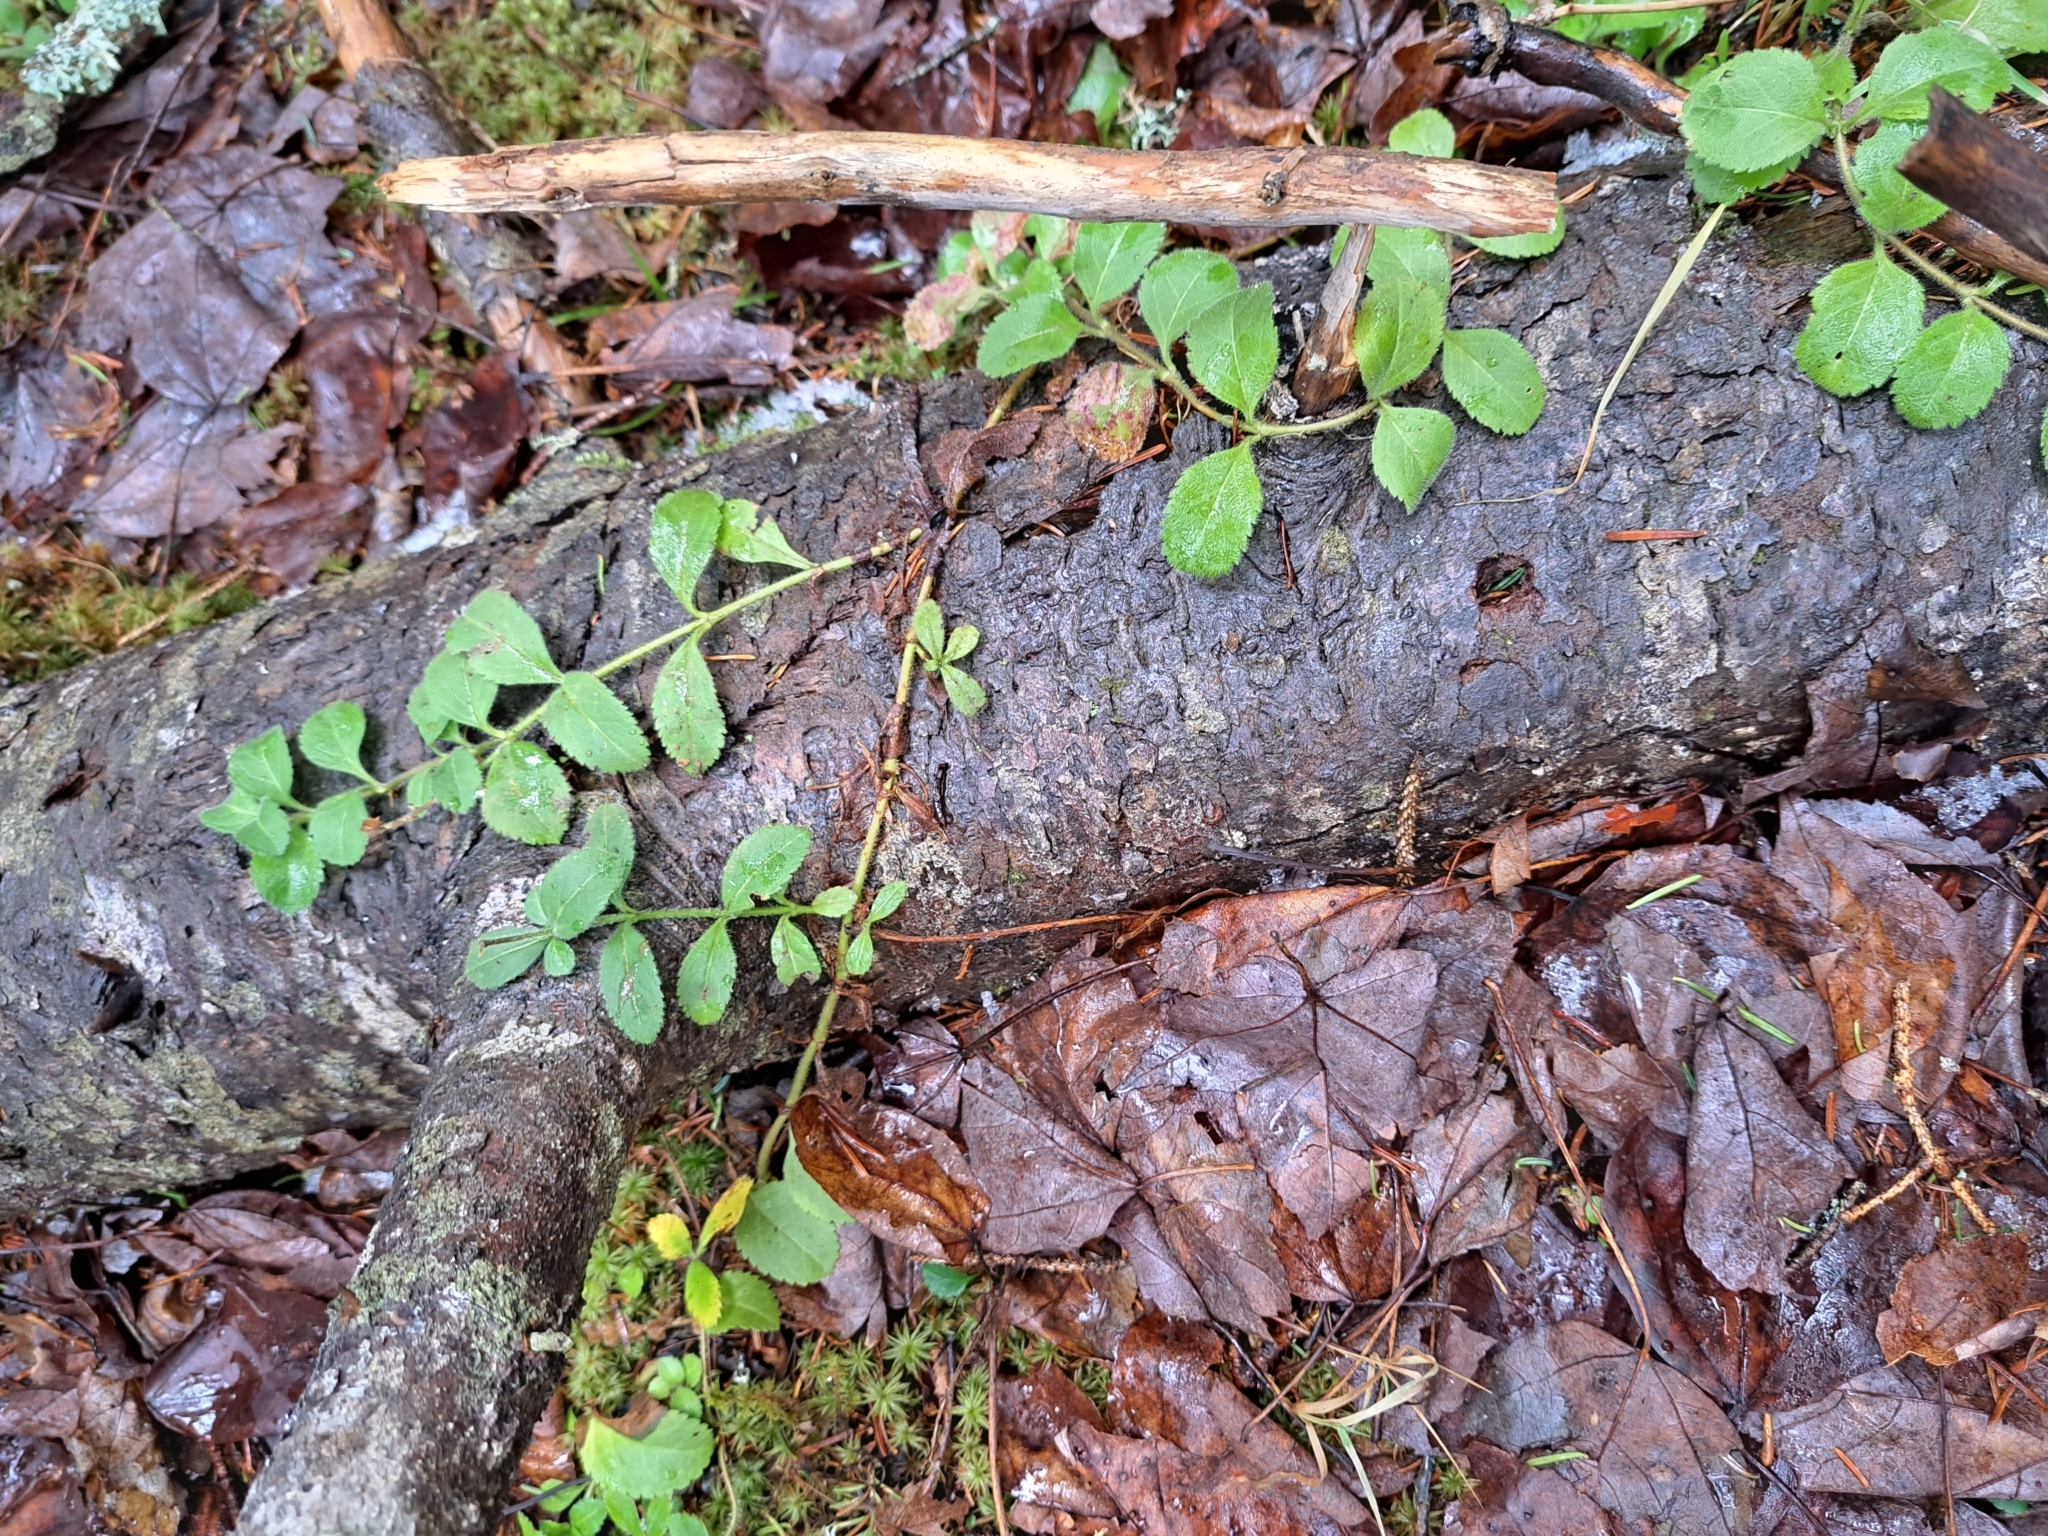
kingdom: Plantae
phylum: Tracheophyta
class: Magnoliopsida
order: Lamiales
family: Plantaginaceae
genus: Veronica
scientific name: Veronica officinalis
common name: Common speedwell
